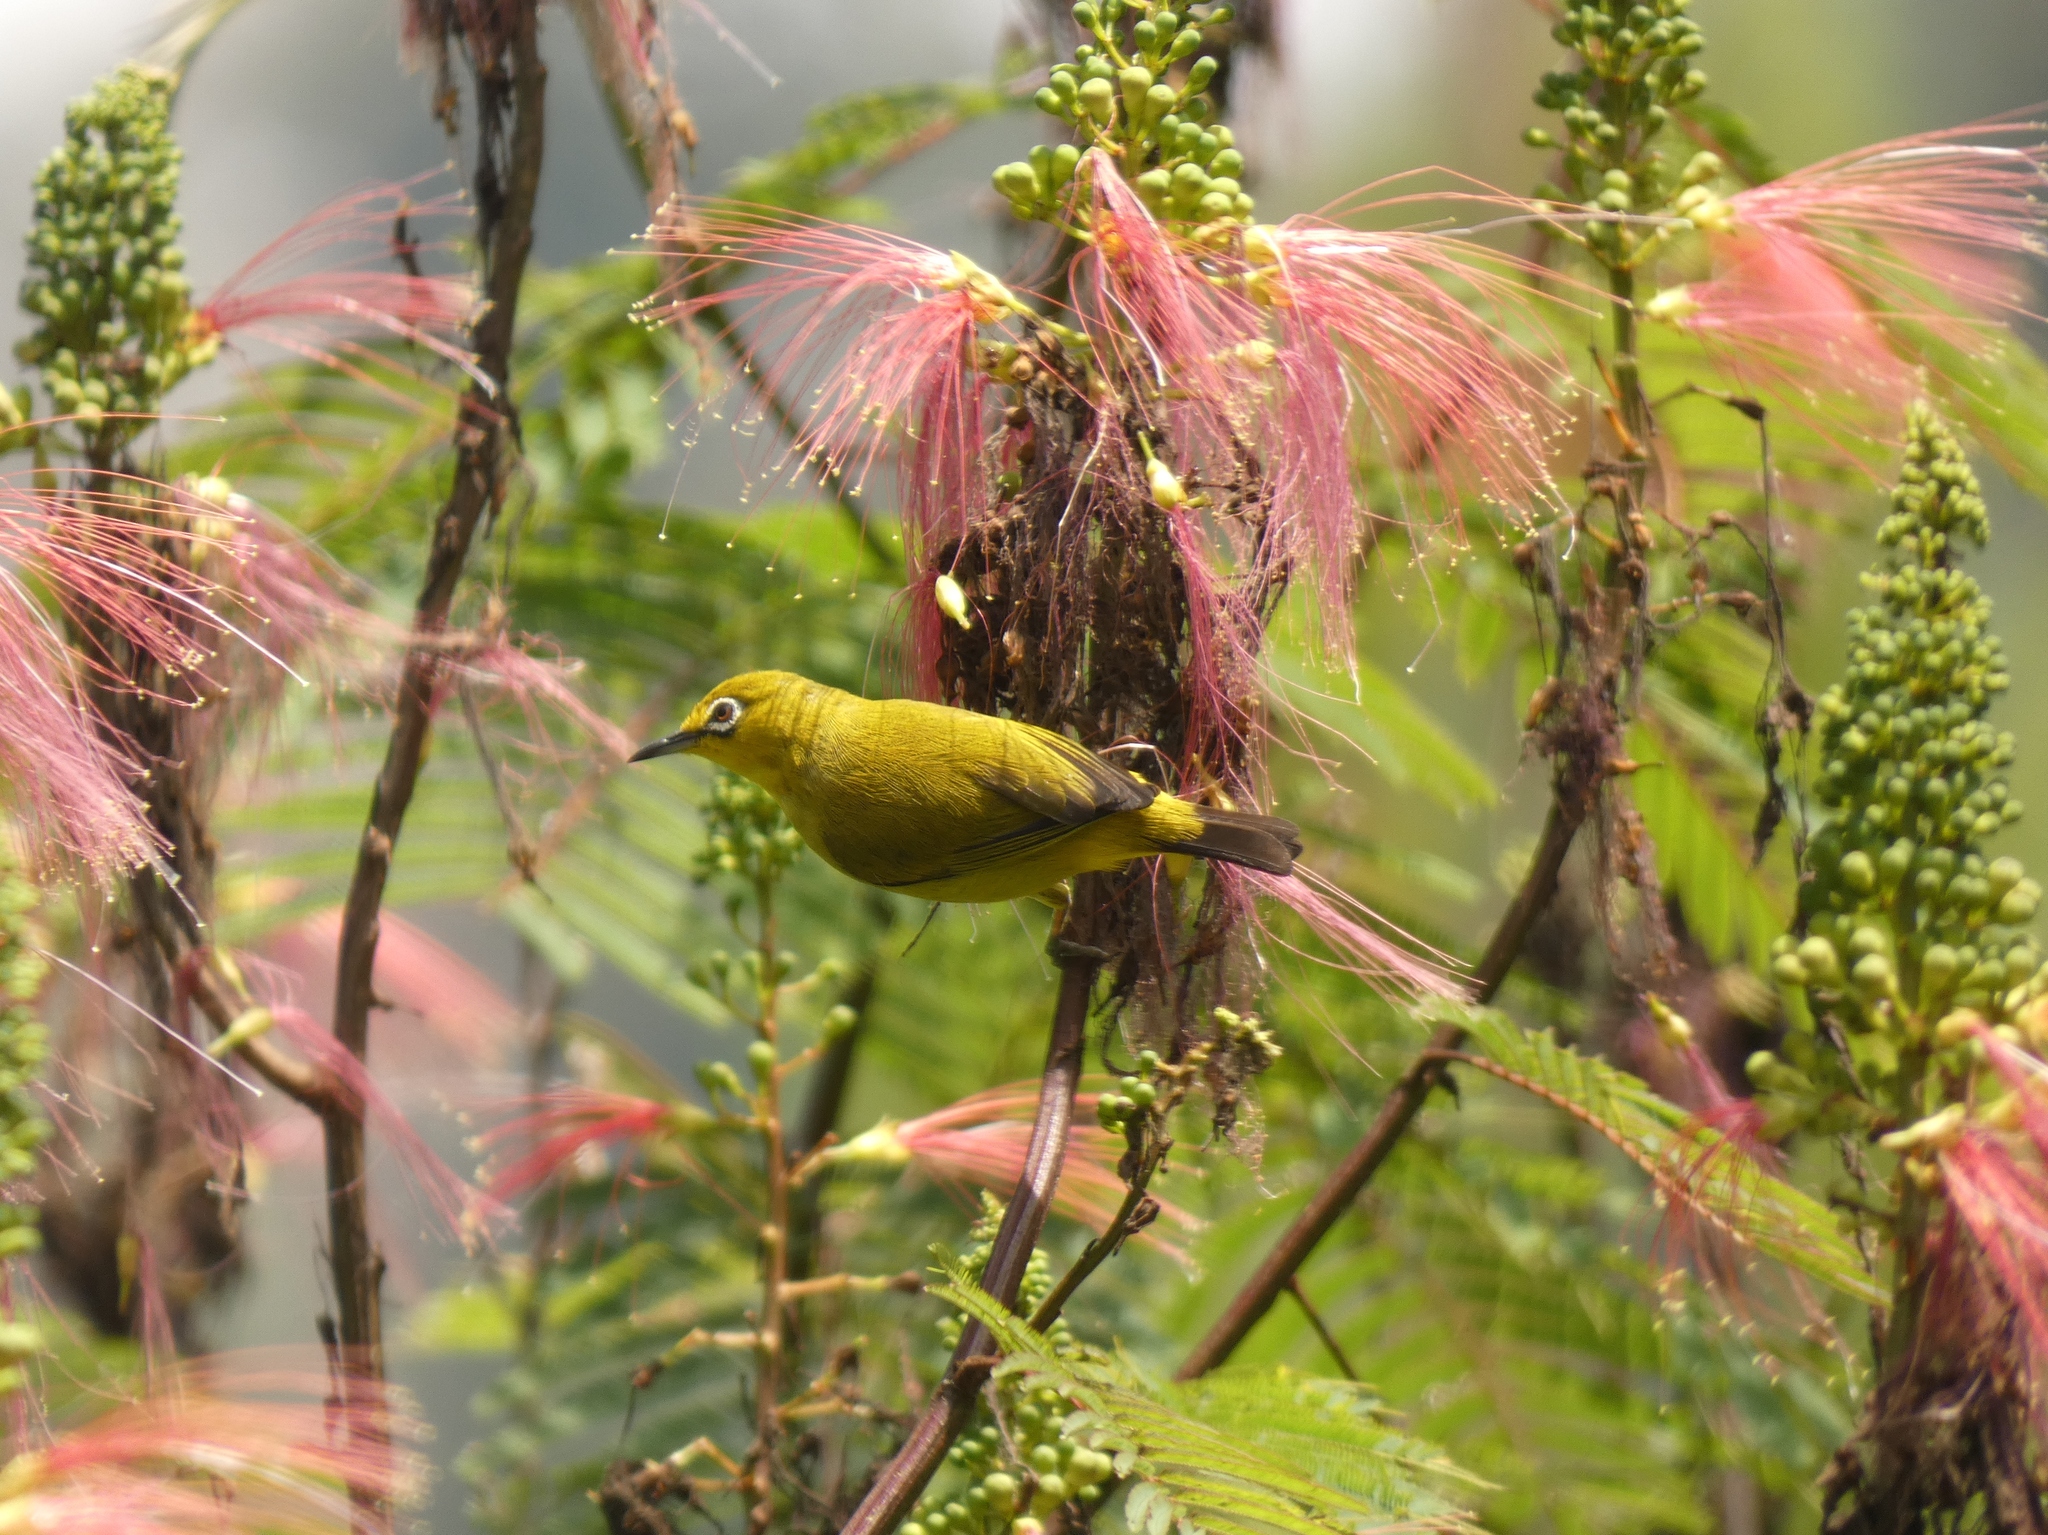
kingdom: Animalia
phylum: Chordata
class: Aves
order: Passeriformes
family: Zosteropidae
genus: Zosterops
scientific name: Zosterops melanurus
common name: Sangkar white-eye
